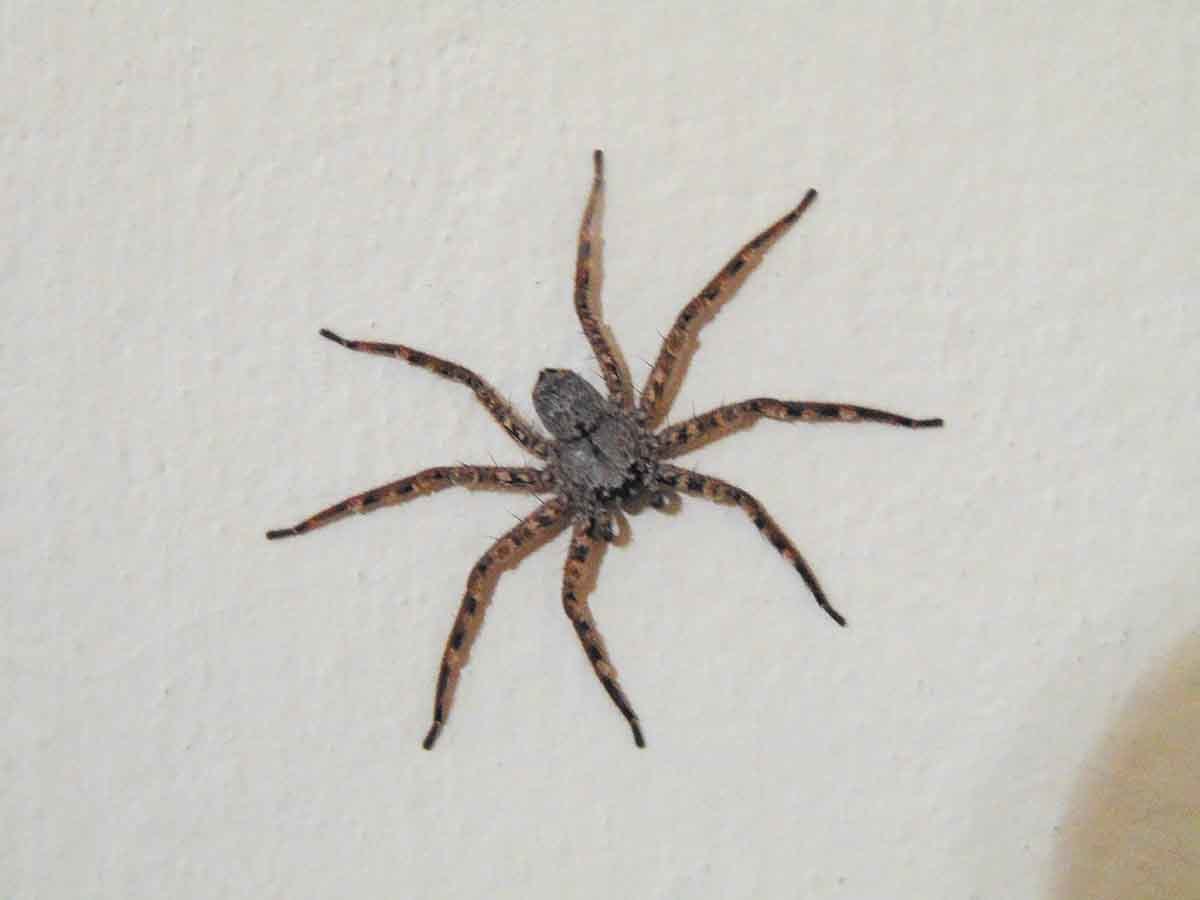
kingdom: Animalia
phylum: Arthropoda
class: Arachnida
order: Araneae
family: Selenopidae
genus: Selenops
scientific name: Selenops
